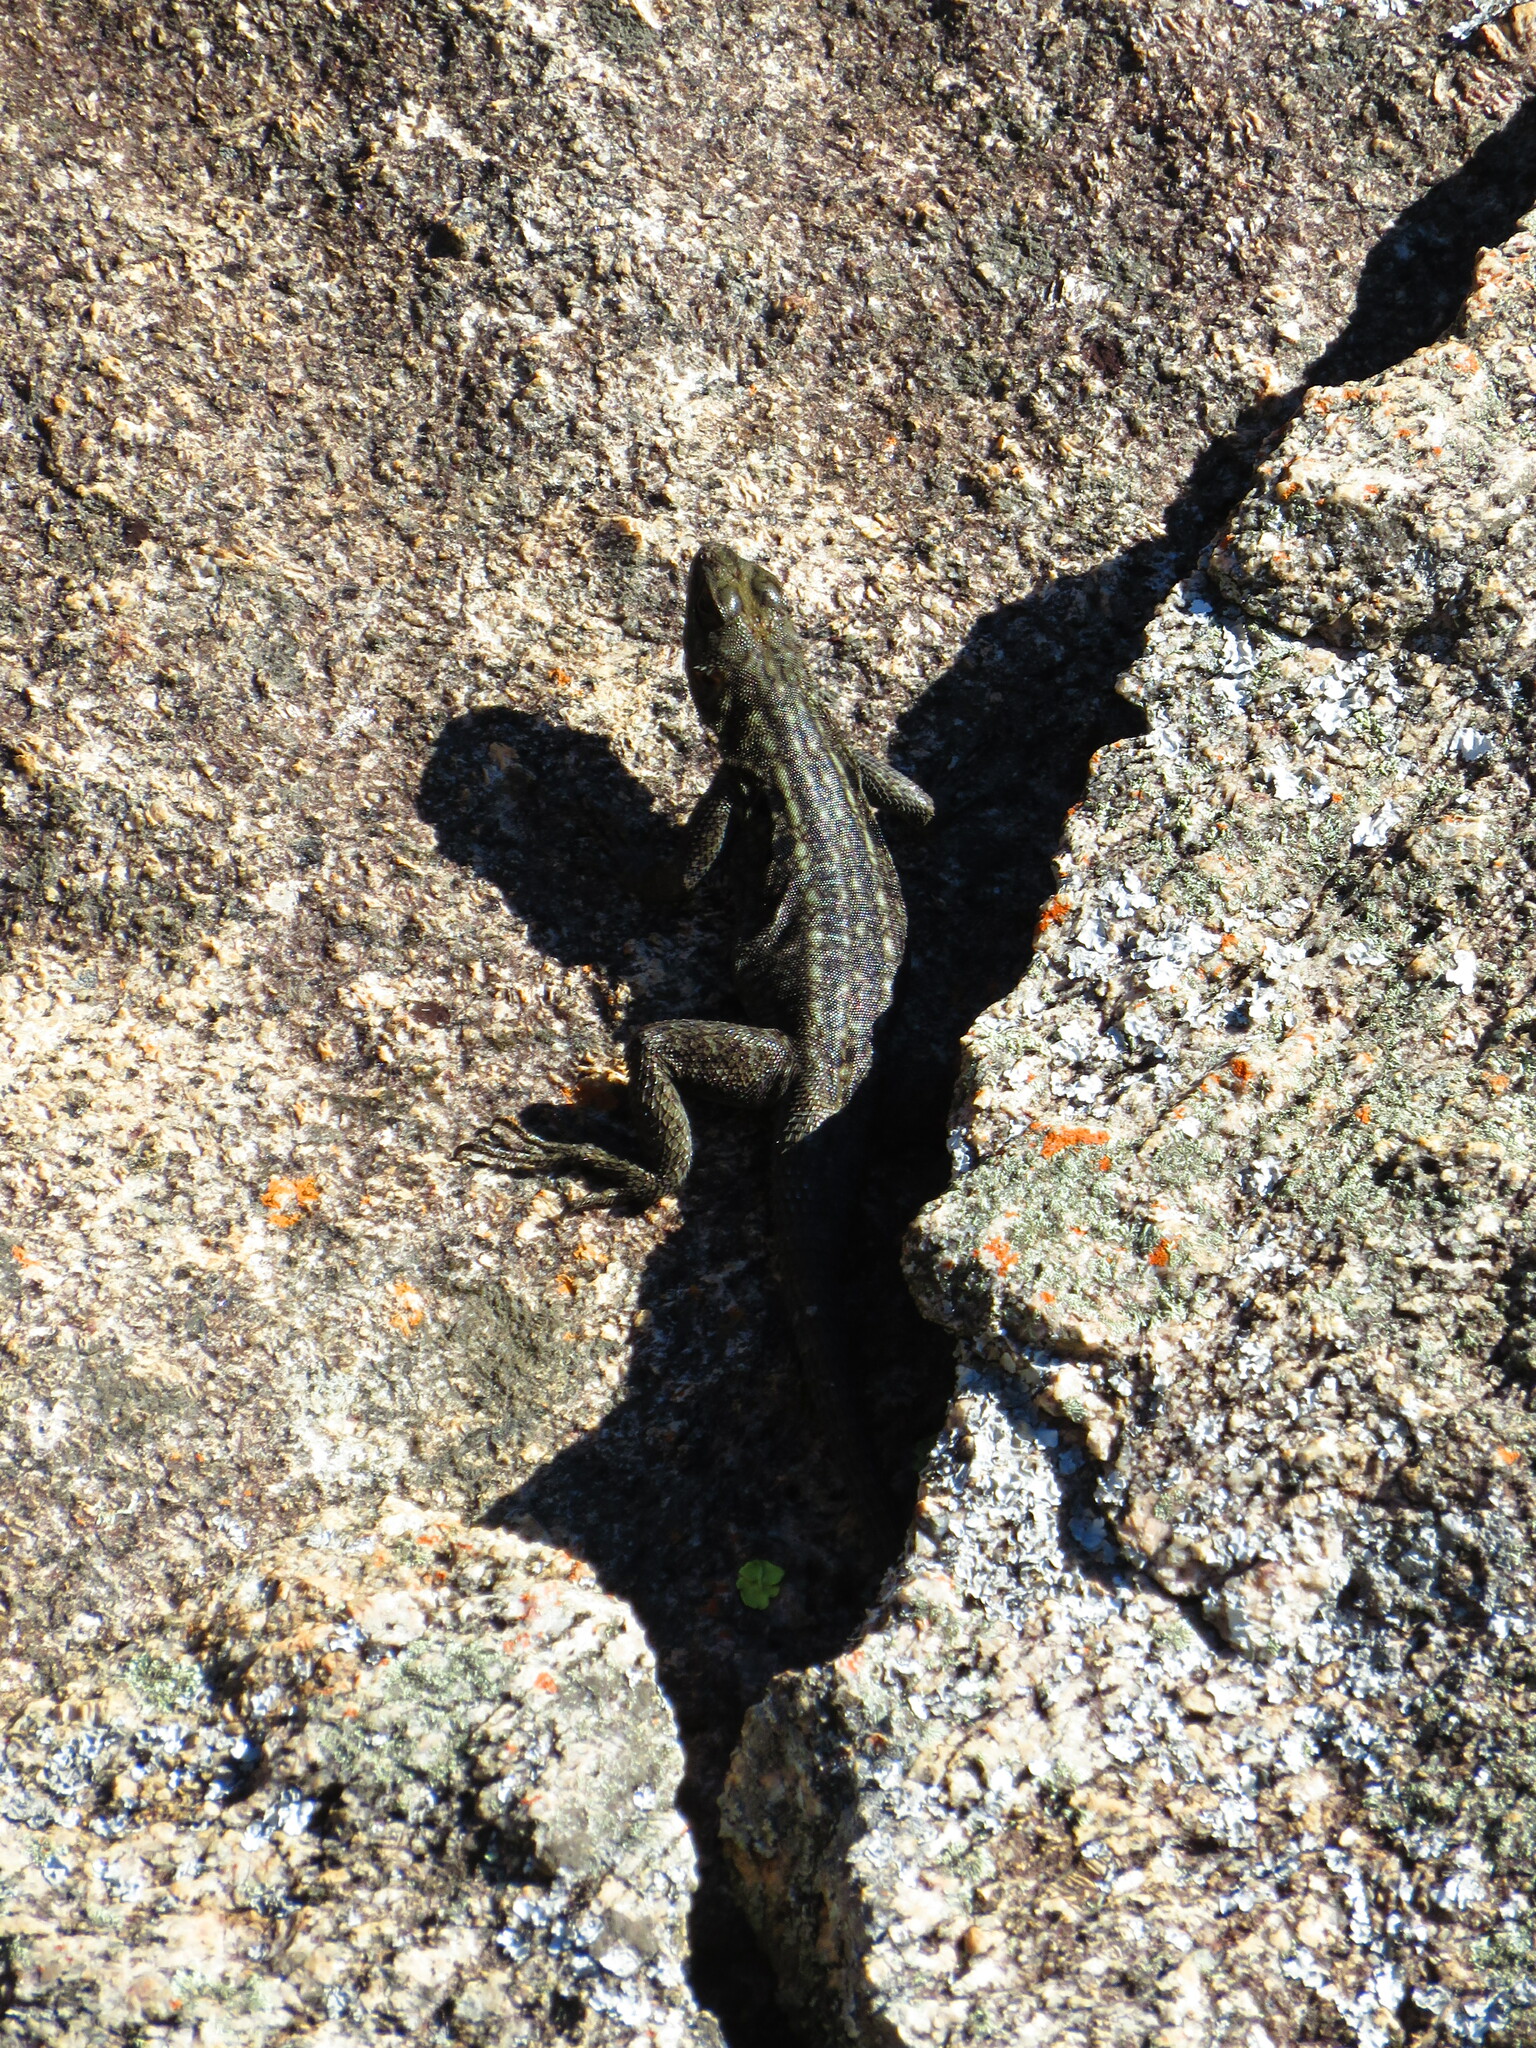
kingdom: Animalia
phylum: Chordata
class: Squamata
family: Opluridae
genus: Oplurus
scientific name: Oplurus quadrimaculatus
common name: Duméril's madagascar swift
